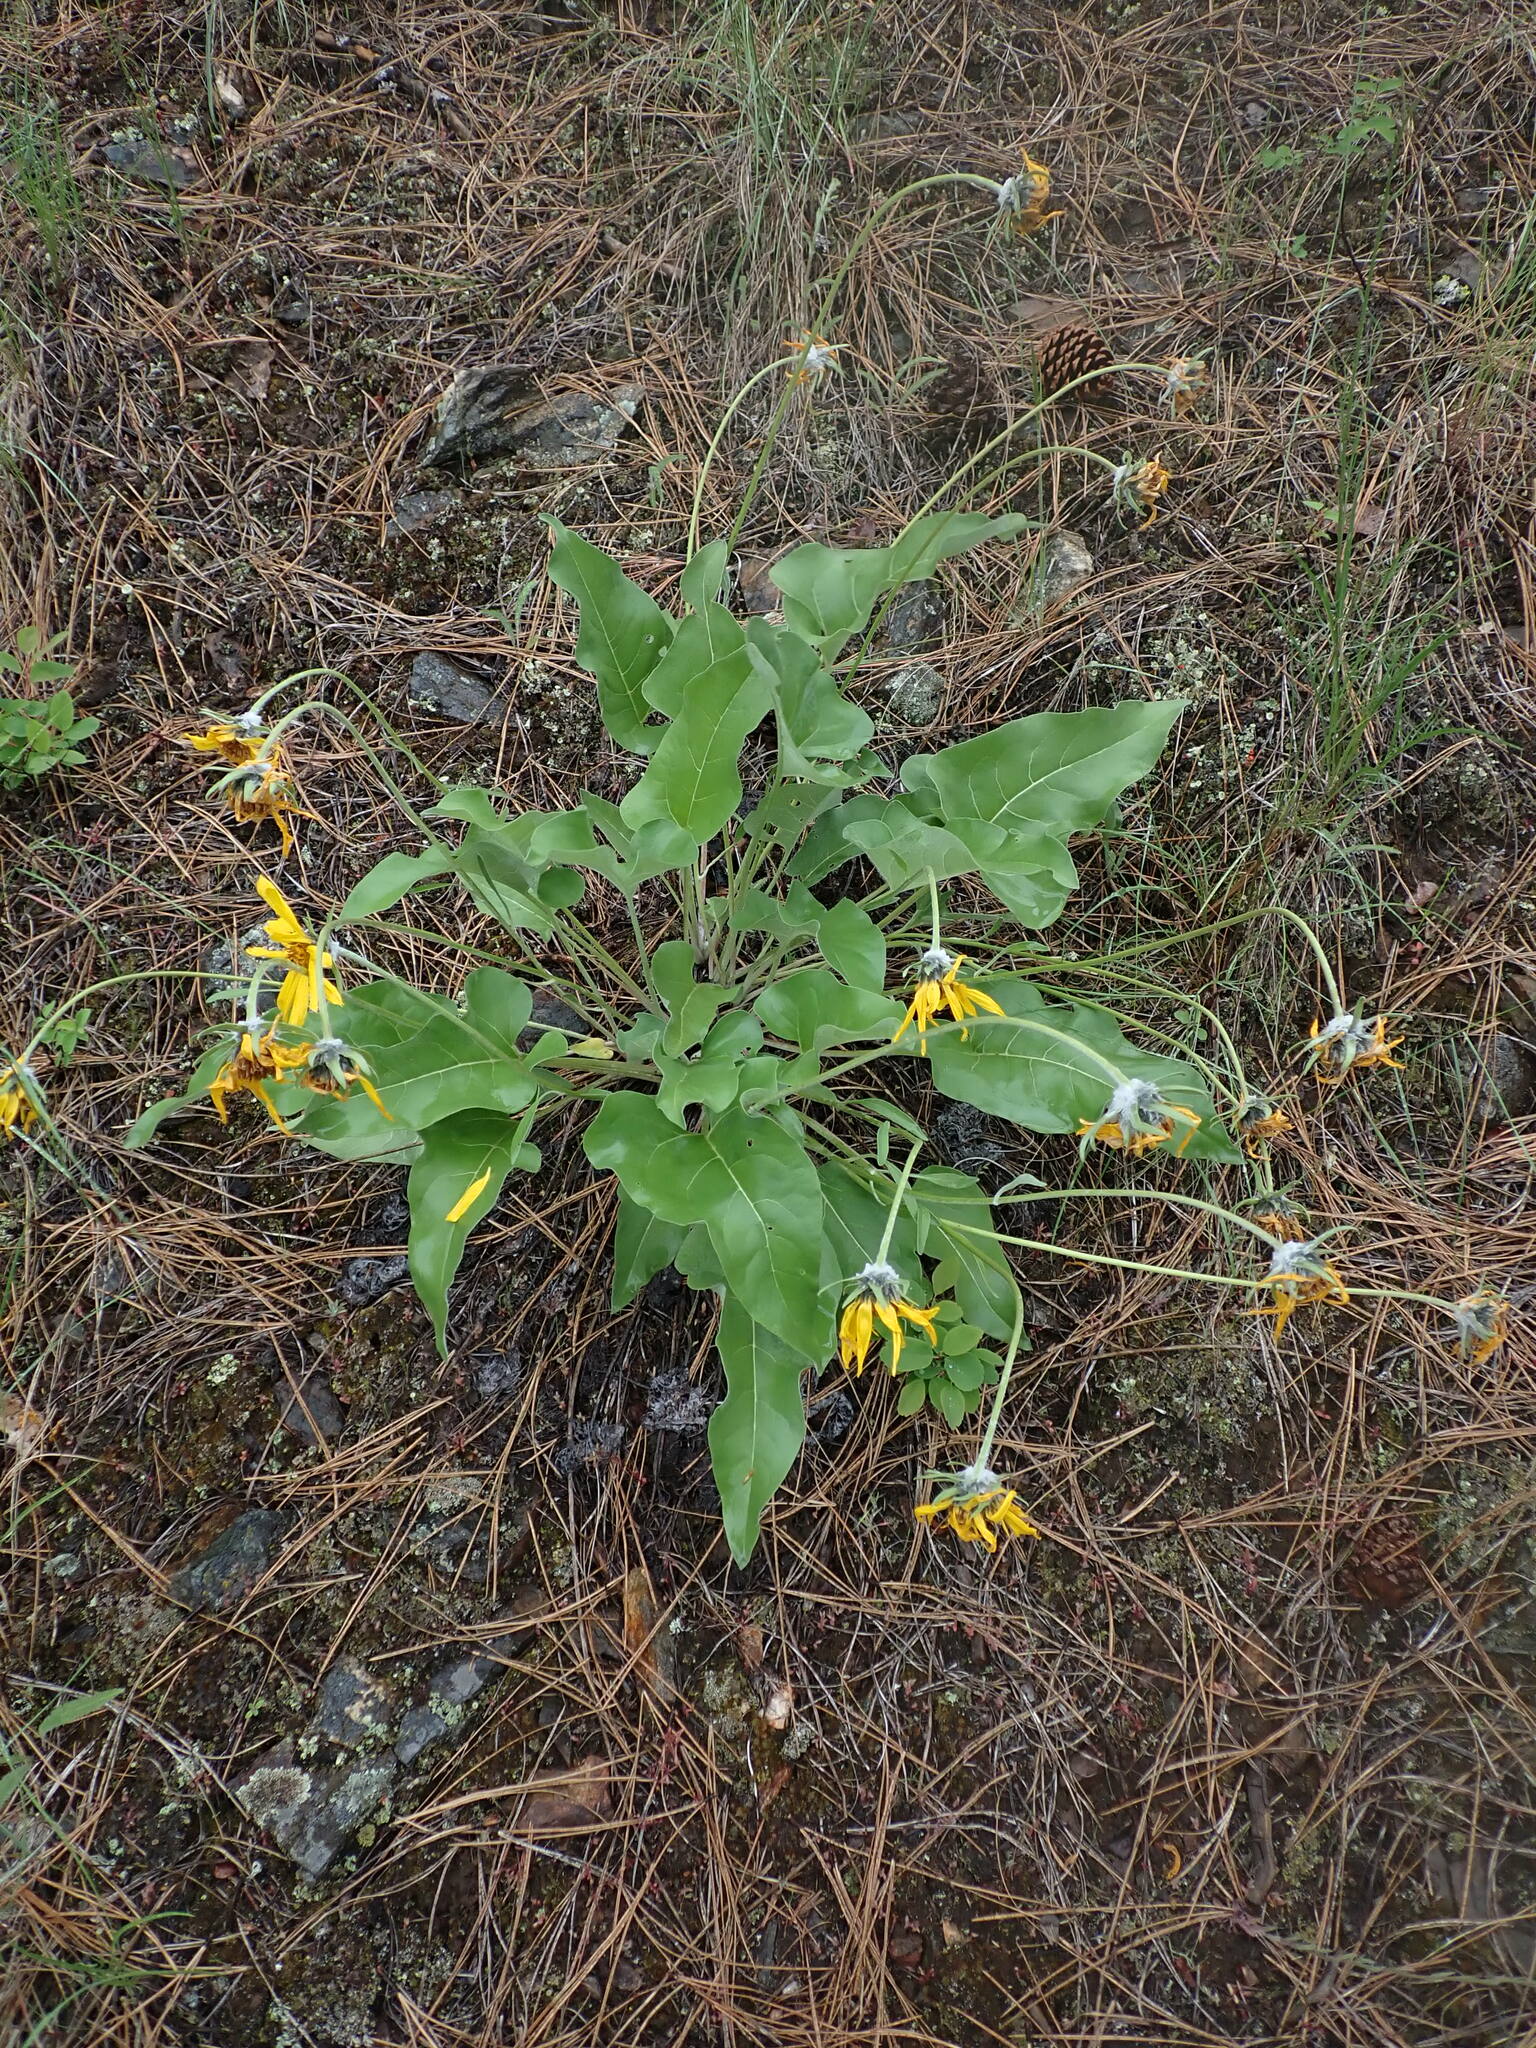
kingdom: Plantae
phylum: Tracheophyta
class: Magnoliopsida
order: Asterales
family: Asteraceae
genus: Wyethia
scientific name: Wyethia sagittata
